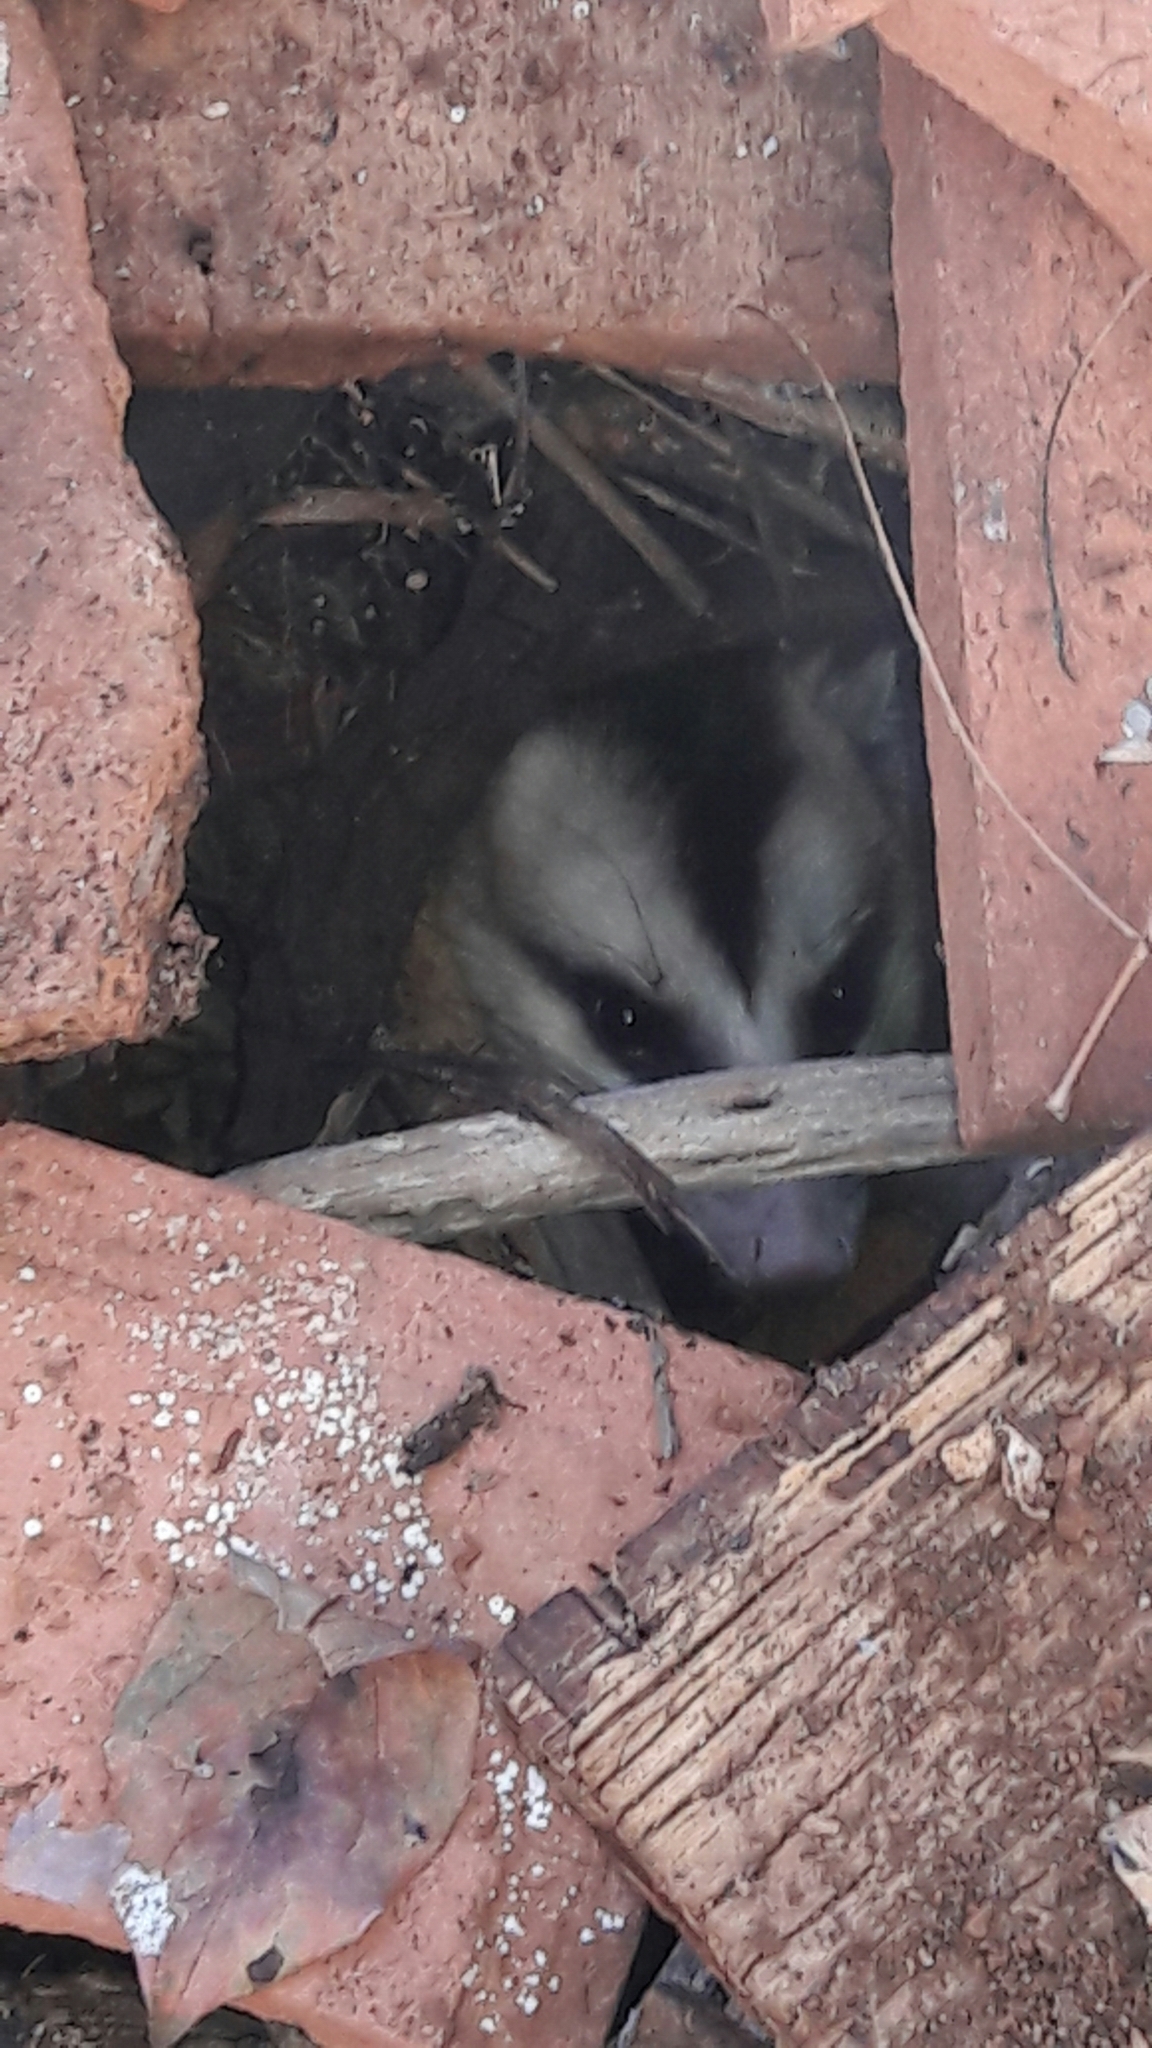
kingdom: Animalia
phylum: Chordata
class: Mammalia
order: Didelphimorphia
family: Didelphidae
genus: Didelphis
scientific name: Didelphis albiventris
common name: White-eared opossum
